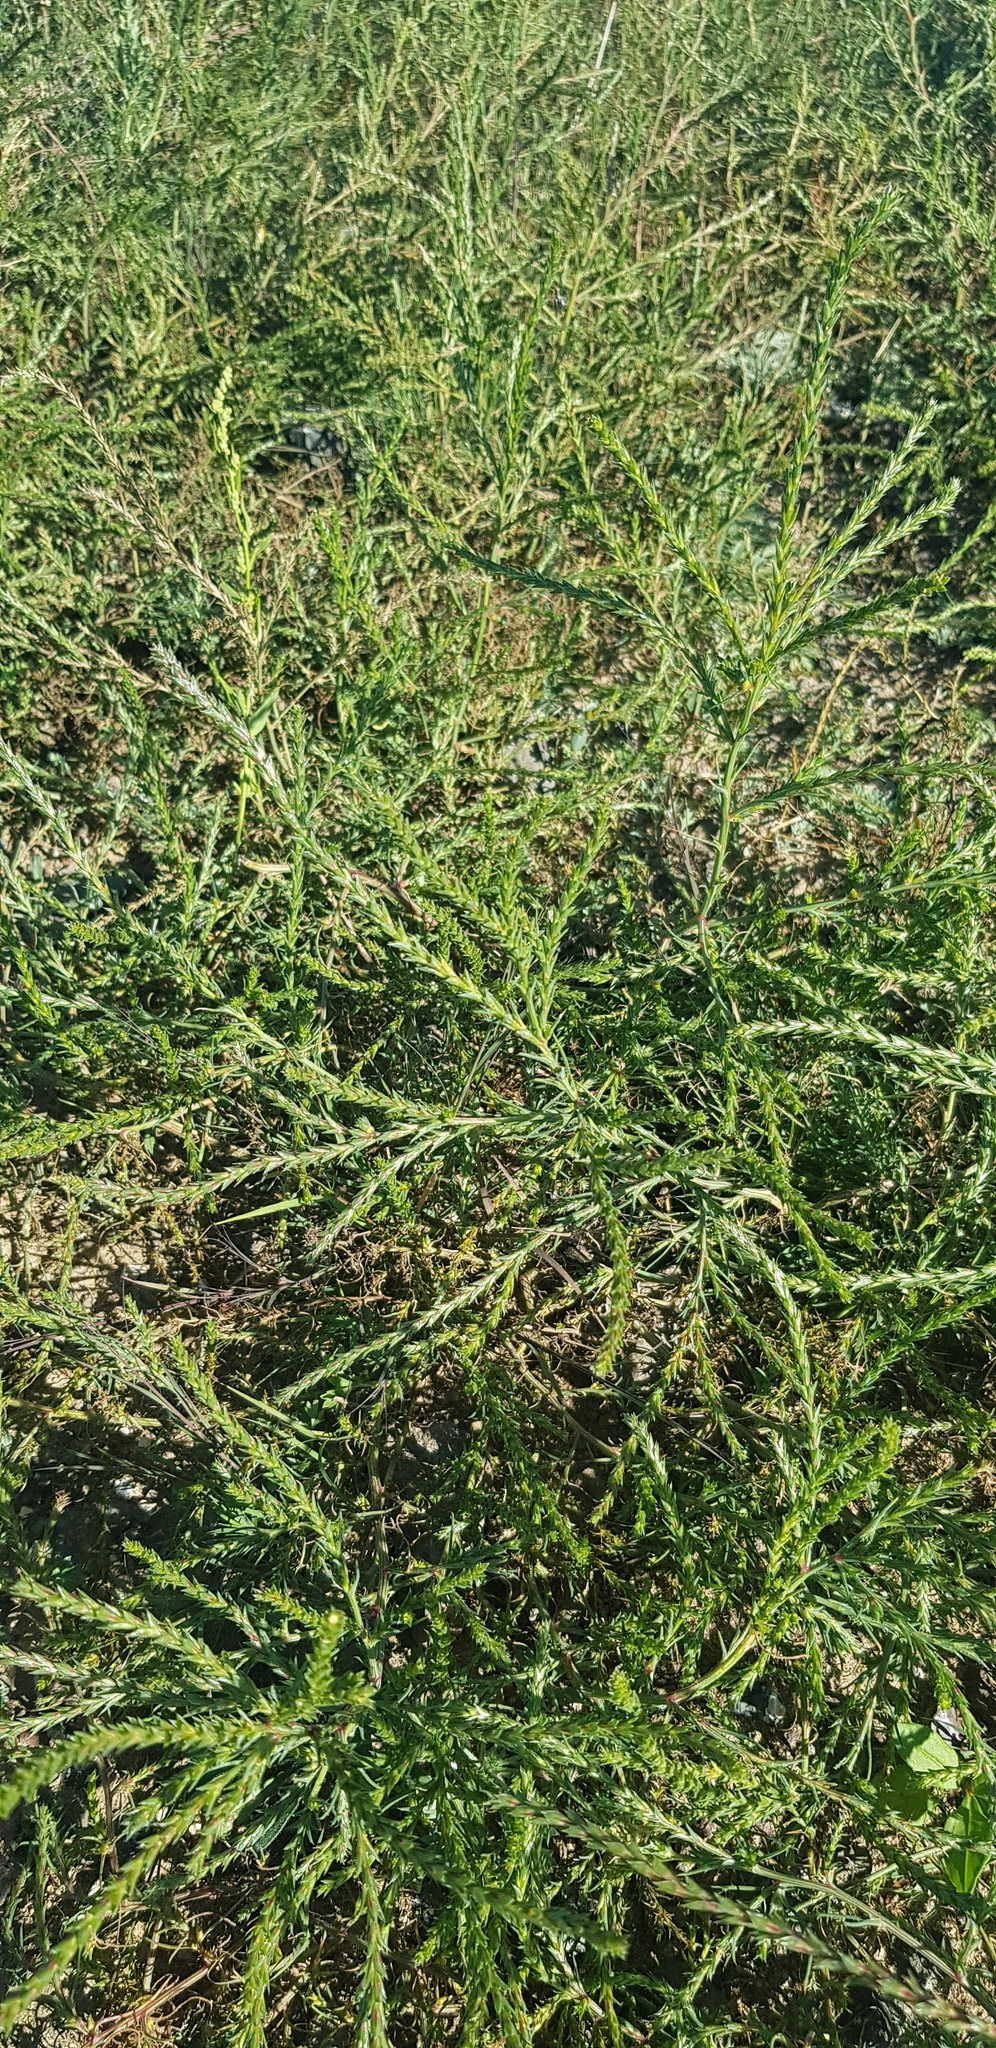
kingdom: Plantae
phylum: Tracheophyta
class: Magnoliopsida
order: Caryophyllales
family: Amaranthaceae
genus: Salsola
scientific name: Salsola collina
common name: Tumbleweed
